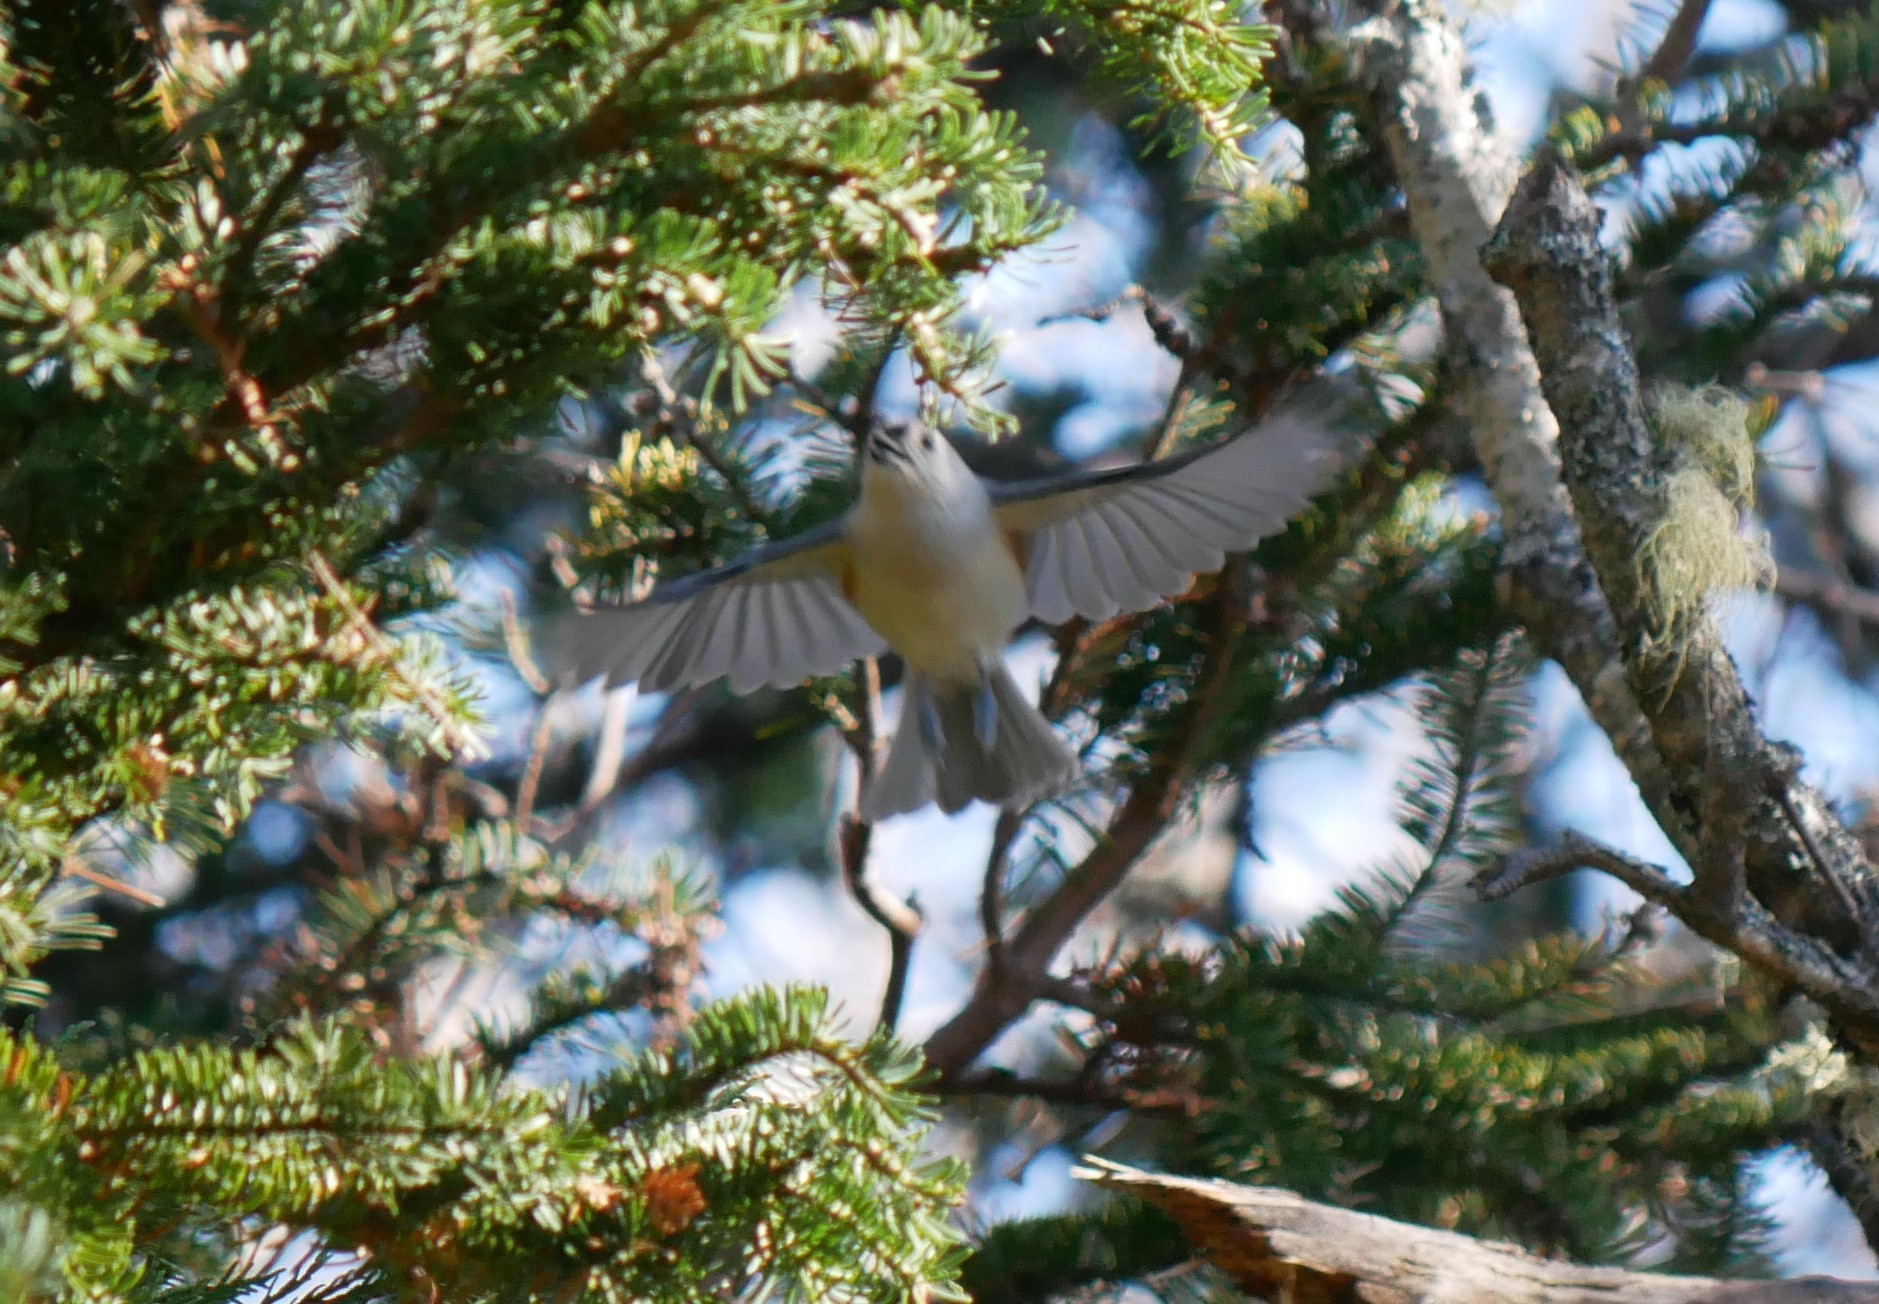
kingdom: Animalia
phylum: Chordata
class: Aves
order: Passeriformes
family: Paridae
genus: Baeolophus
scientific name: Baeolophus bicolor
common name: Tufted titmouse
